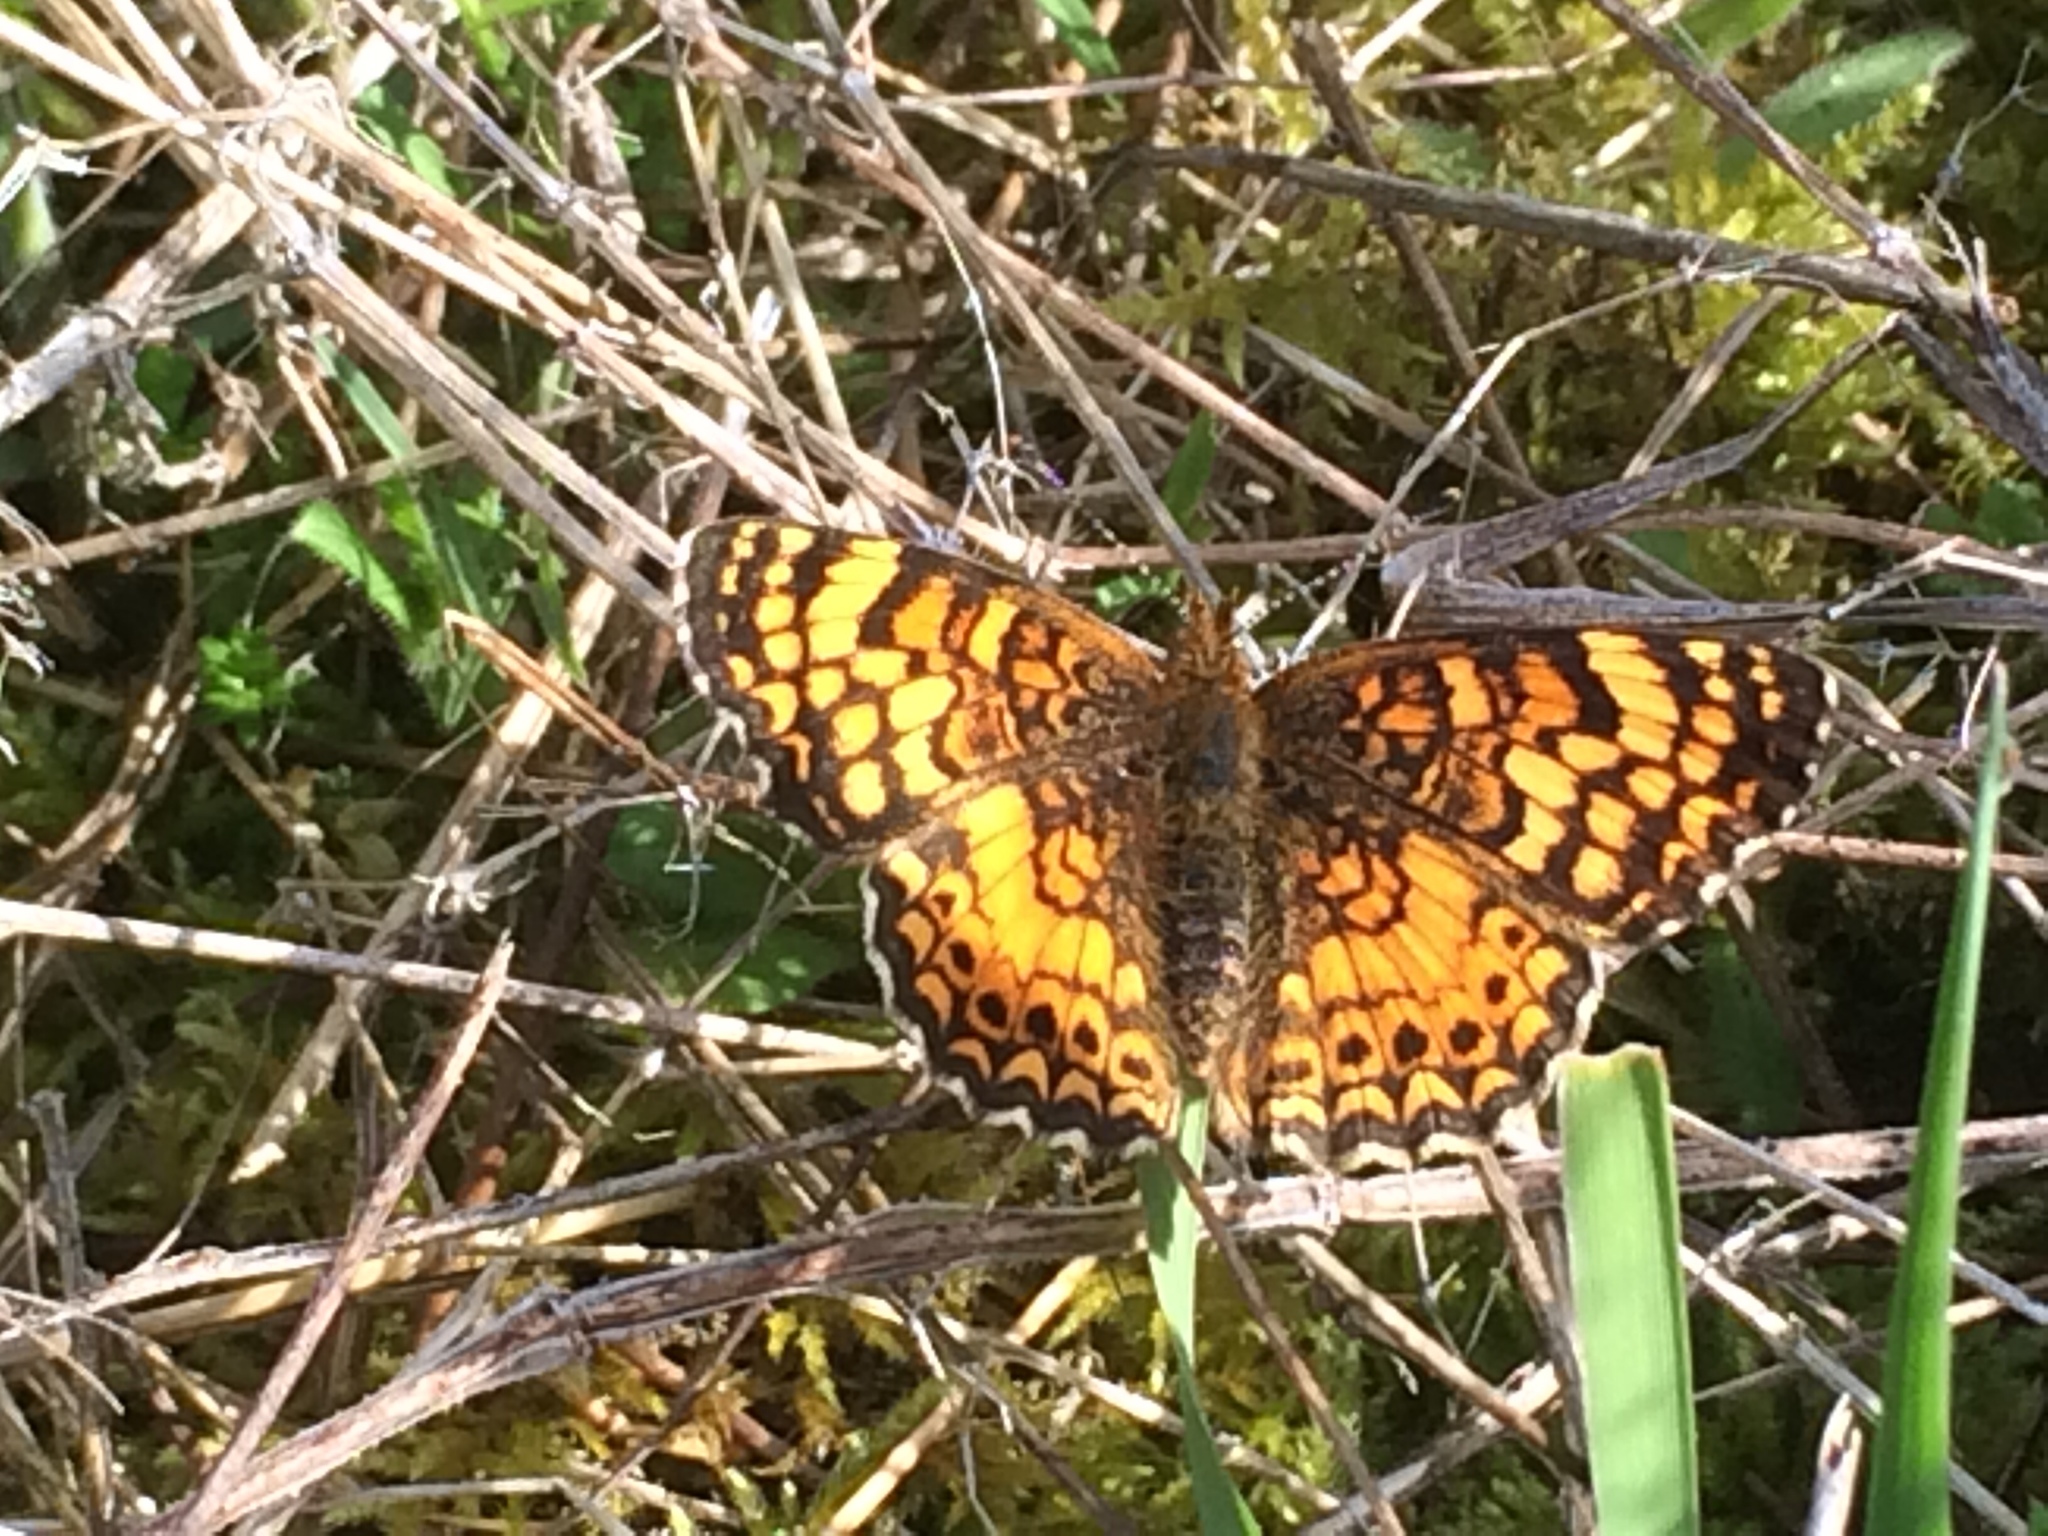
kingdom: Animalia
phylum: Arthropoda
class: Insecta
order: Lepidoptera
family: Nymphalidae
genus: Eresia
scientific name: Eresia aveyrona
